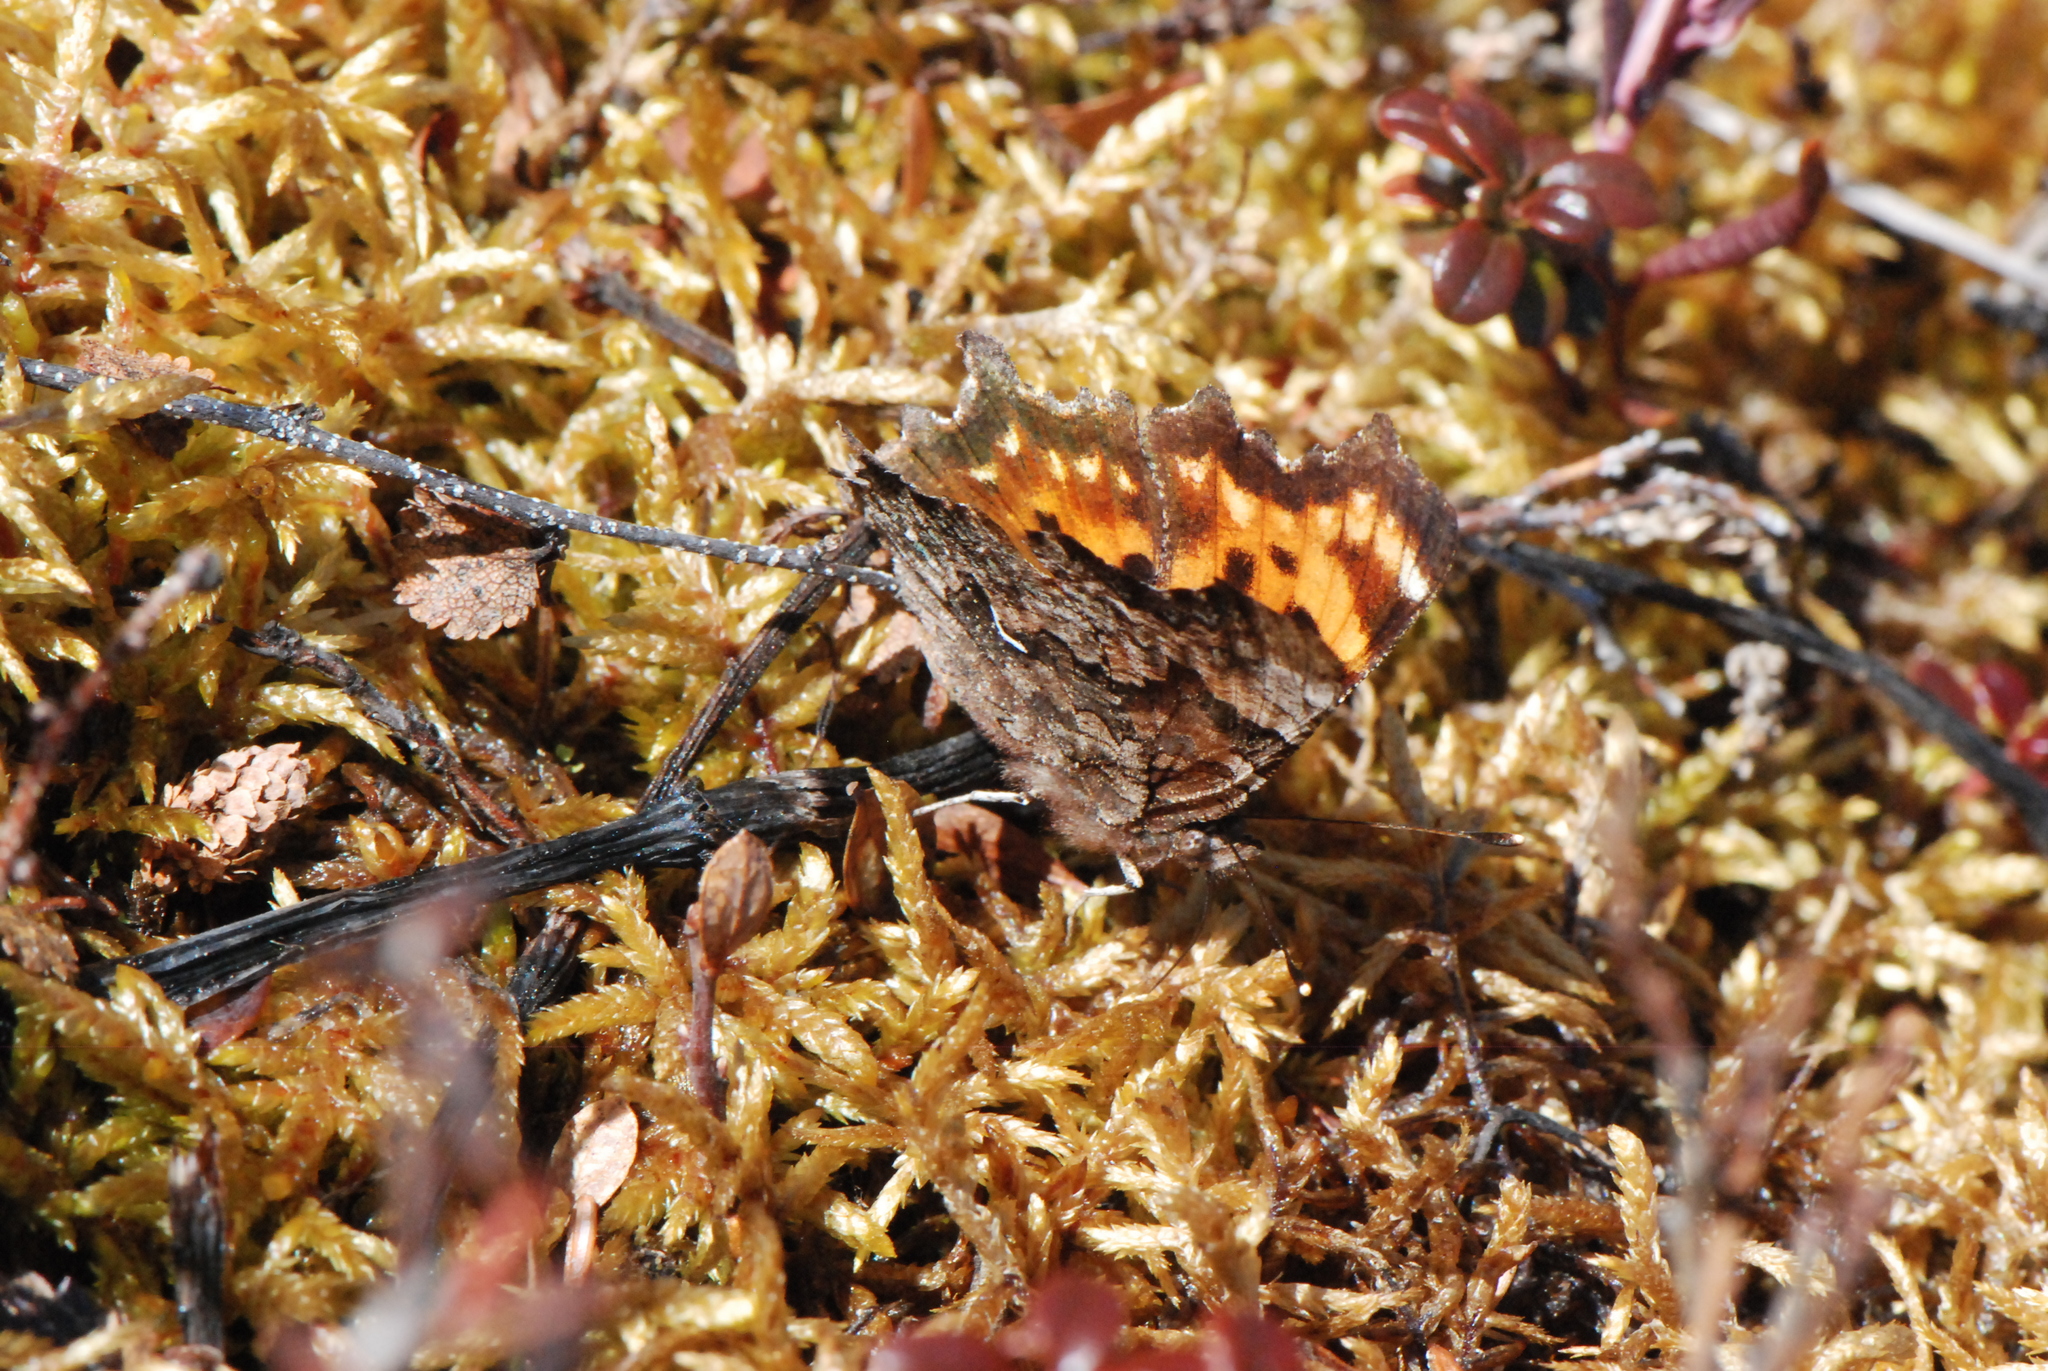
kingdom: Animalia
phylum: Arthropoda
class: Insecta
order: Lepidoptera
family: Nymphalidae
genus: Polygonia
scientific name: Polygonia faunus
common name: Green comma
